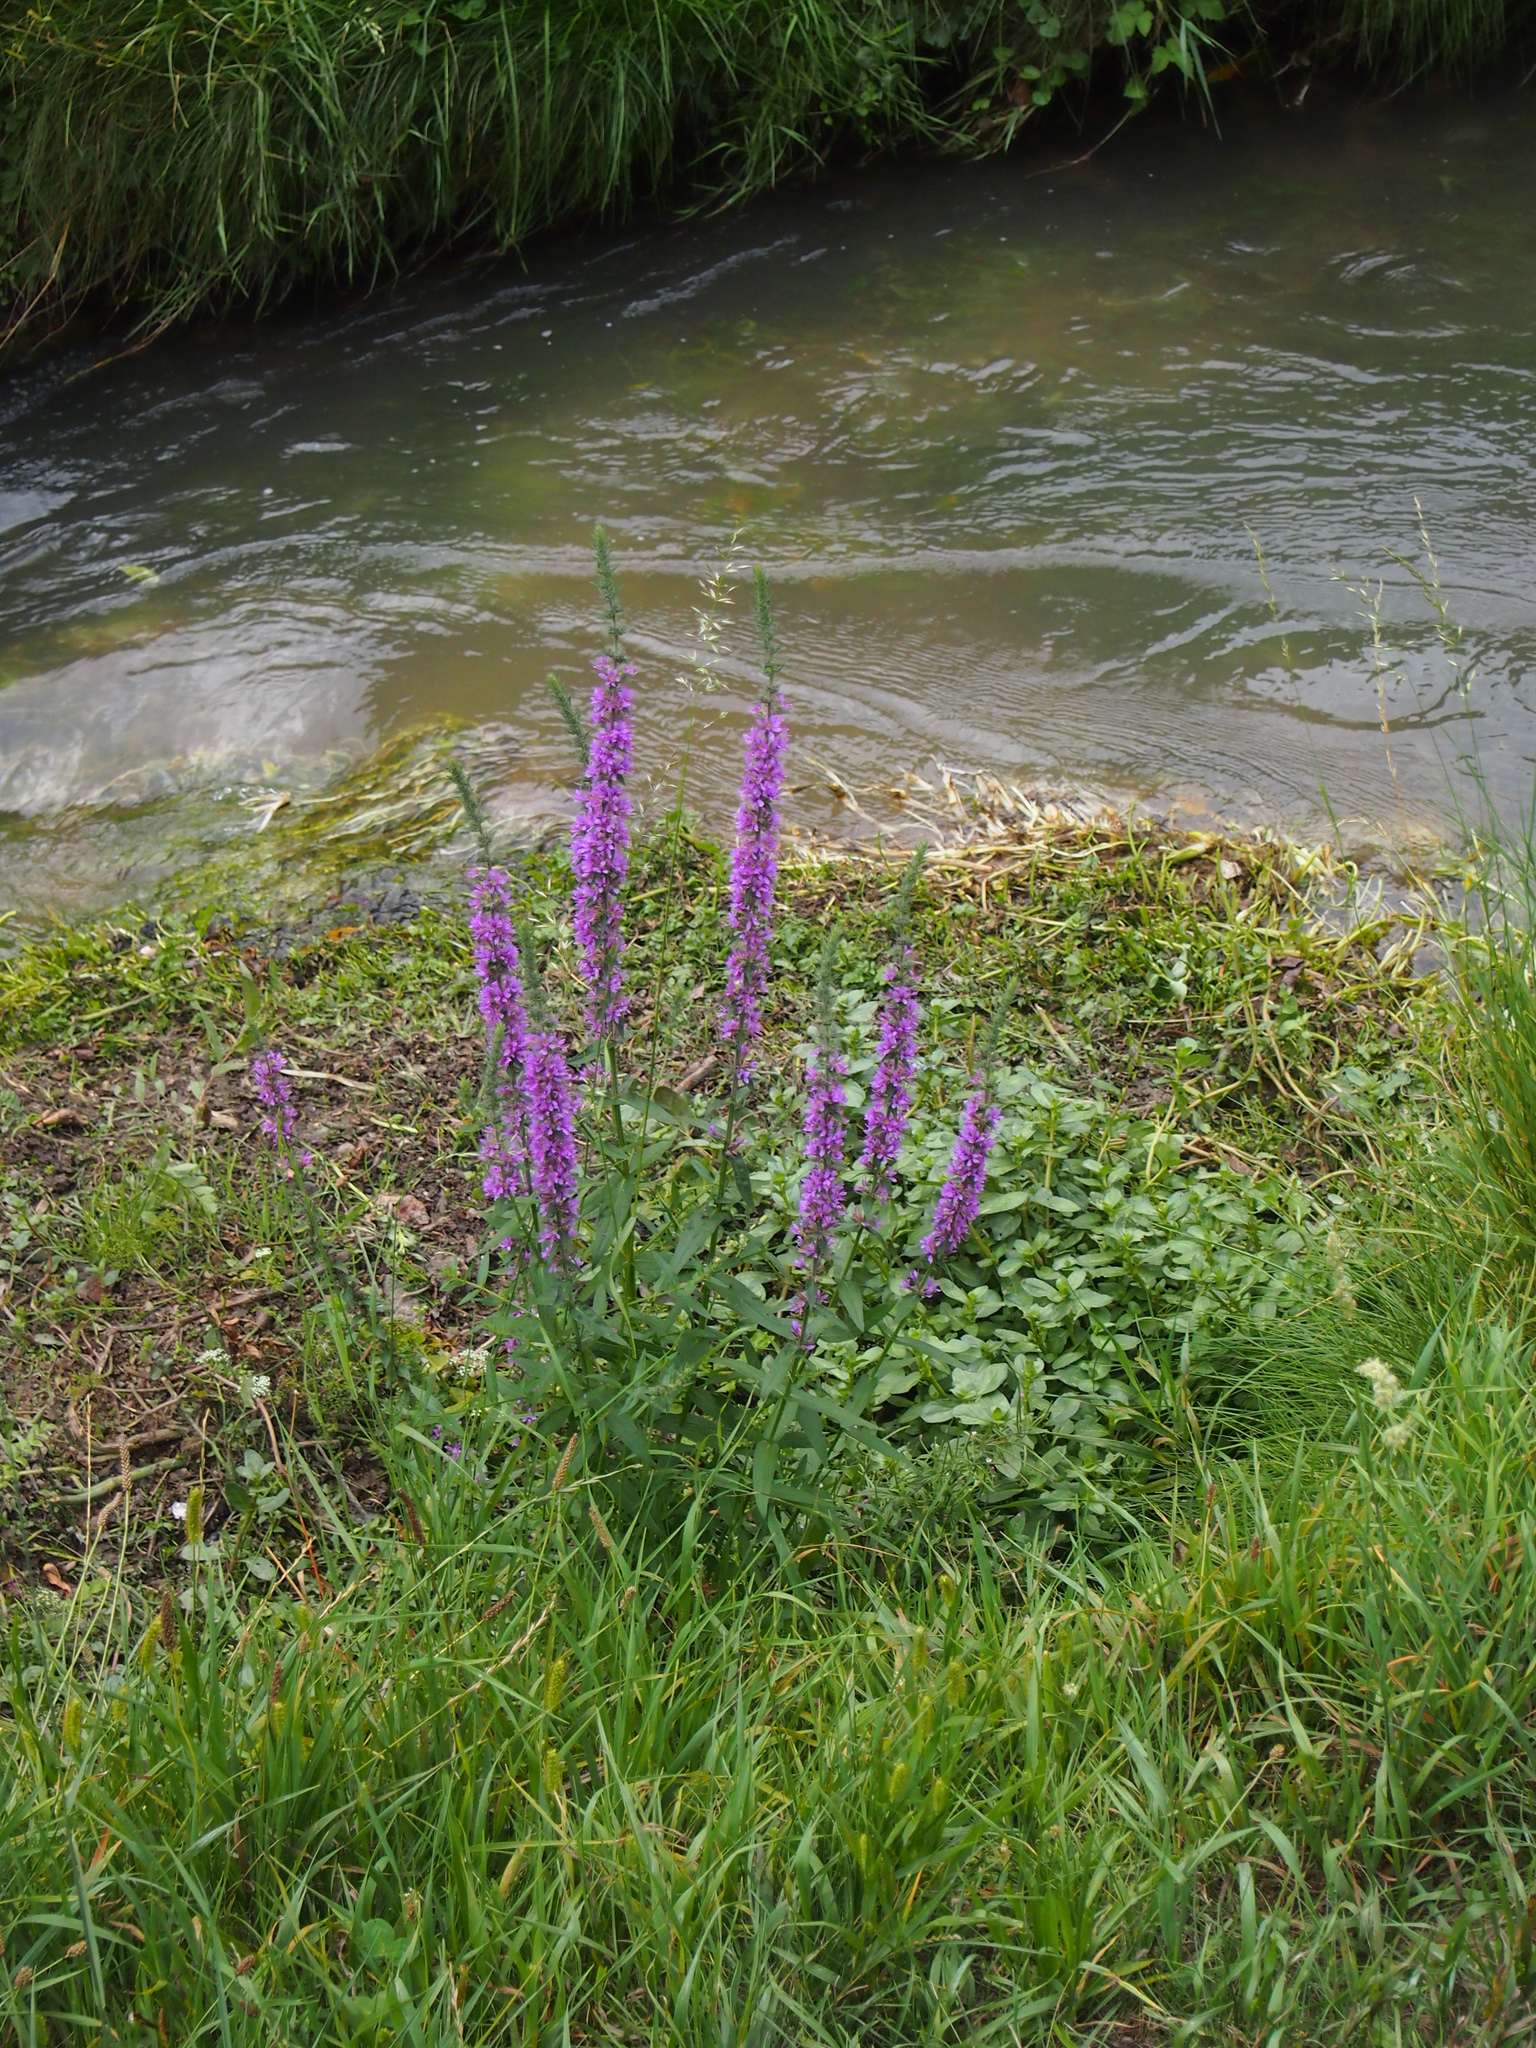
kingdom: Plantae
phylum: Tracheophyta
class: Magnoliopsida
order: Myrtales
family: Lythraceae
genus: Lythrum
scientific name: Lythrum salicaria
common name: Purple loosestrife
